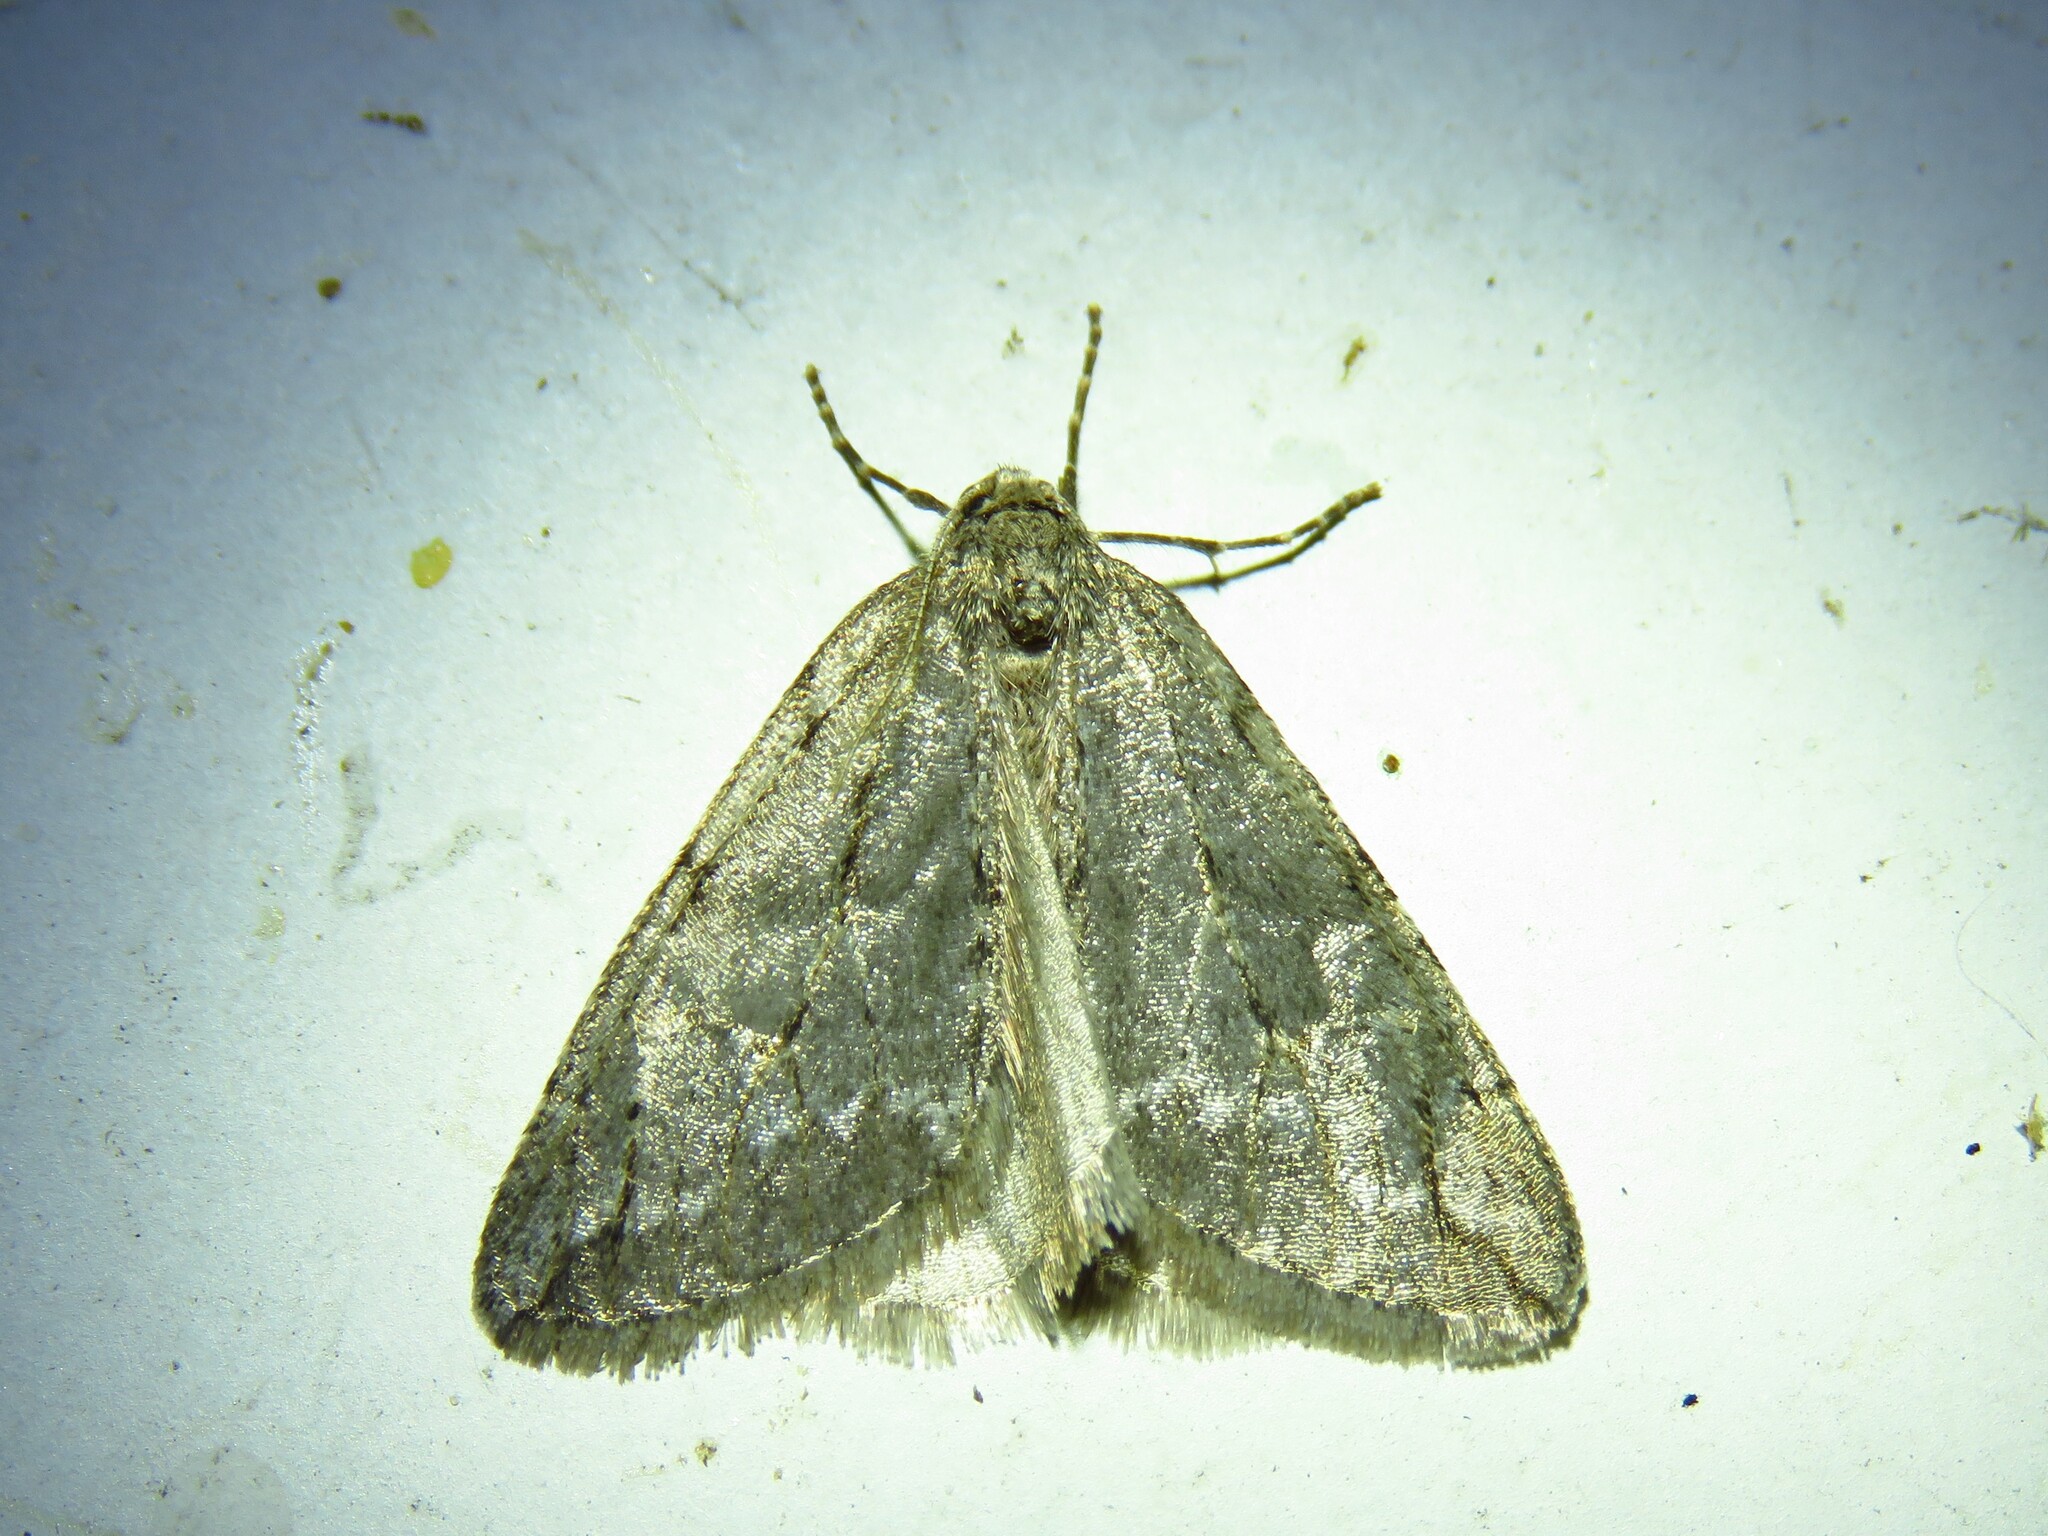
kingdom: Animalia
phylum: Arthropoda
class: Insecta
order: Lepidoptera
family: Geometridae
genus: Paleacrita
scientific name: Paleacrita vernata
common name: Spring cankerworm
